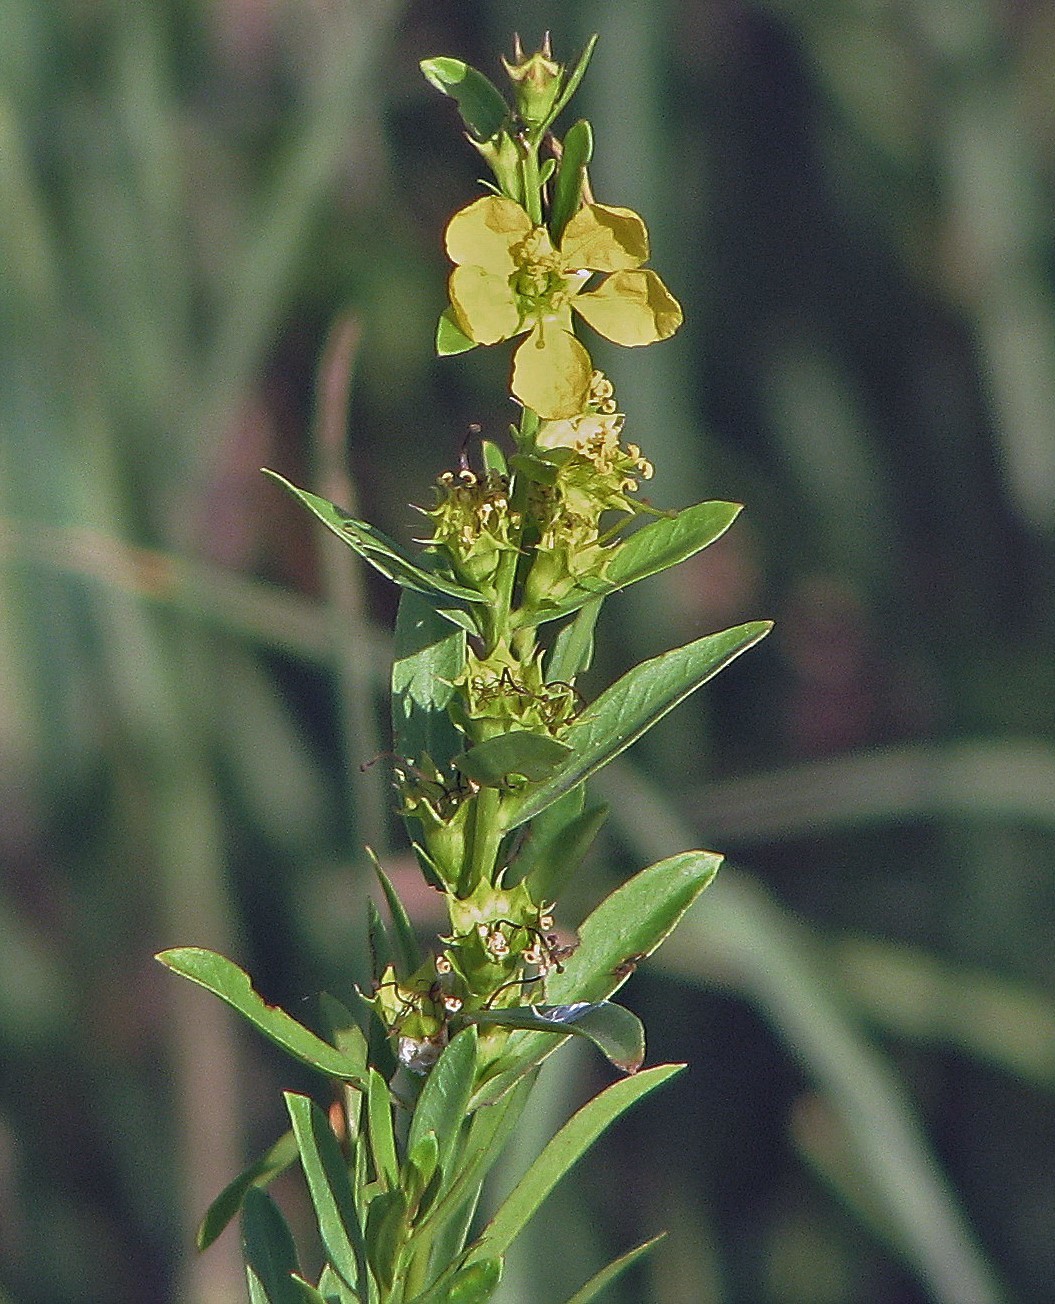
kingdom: Plantae
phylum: Tracheophyta
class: Magnoliopsida
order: Myrtales
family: Lythraceae
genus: Heimia
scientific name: Heimia salicifolia
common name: Willow-leaf heimia
